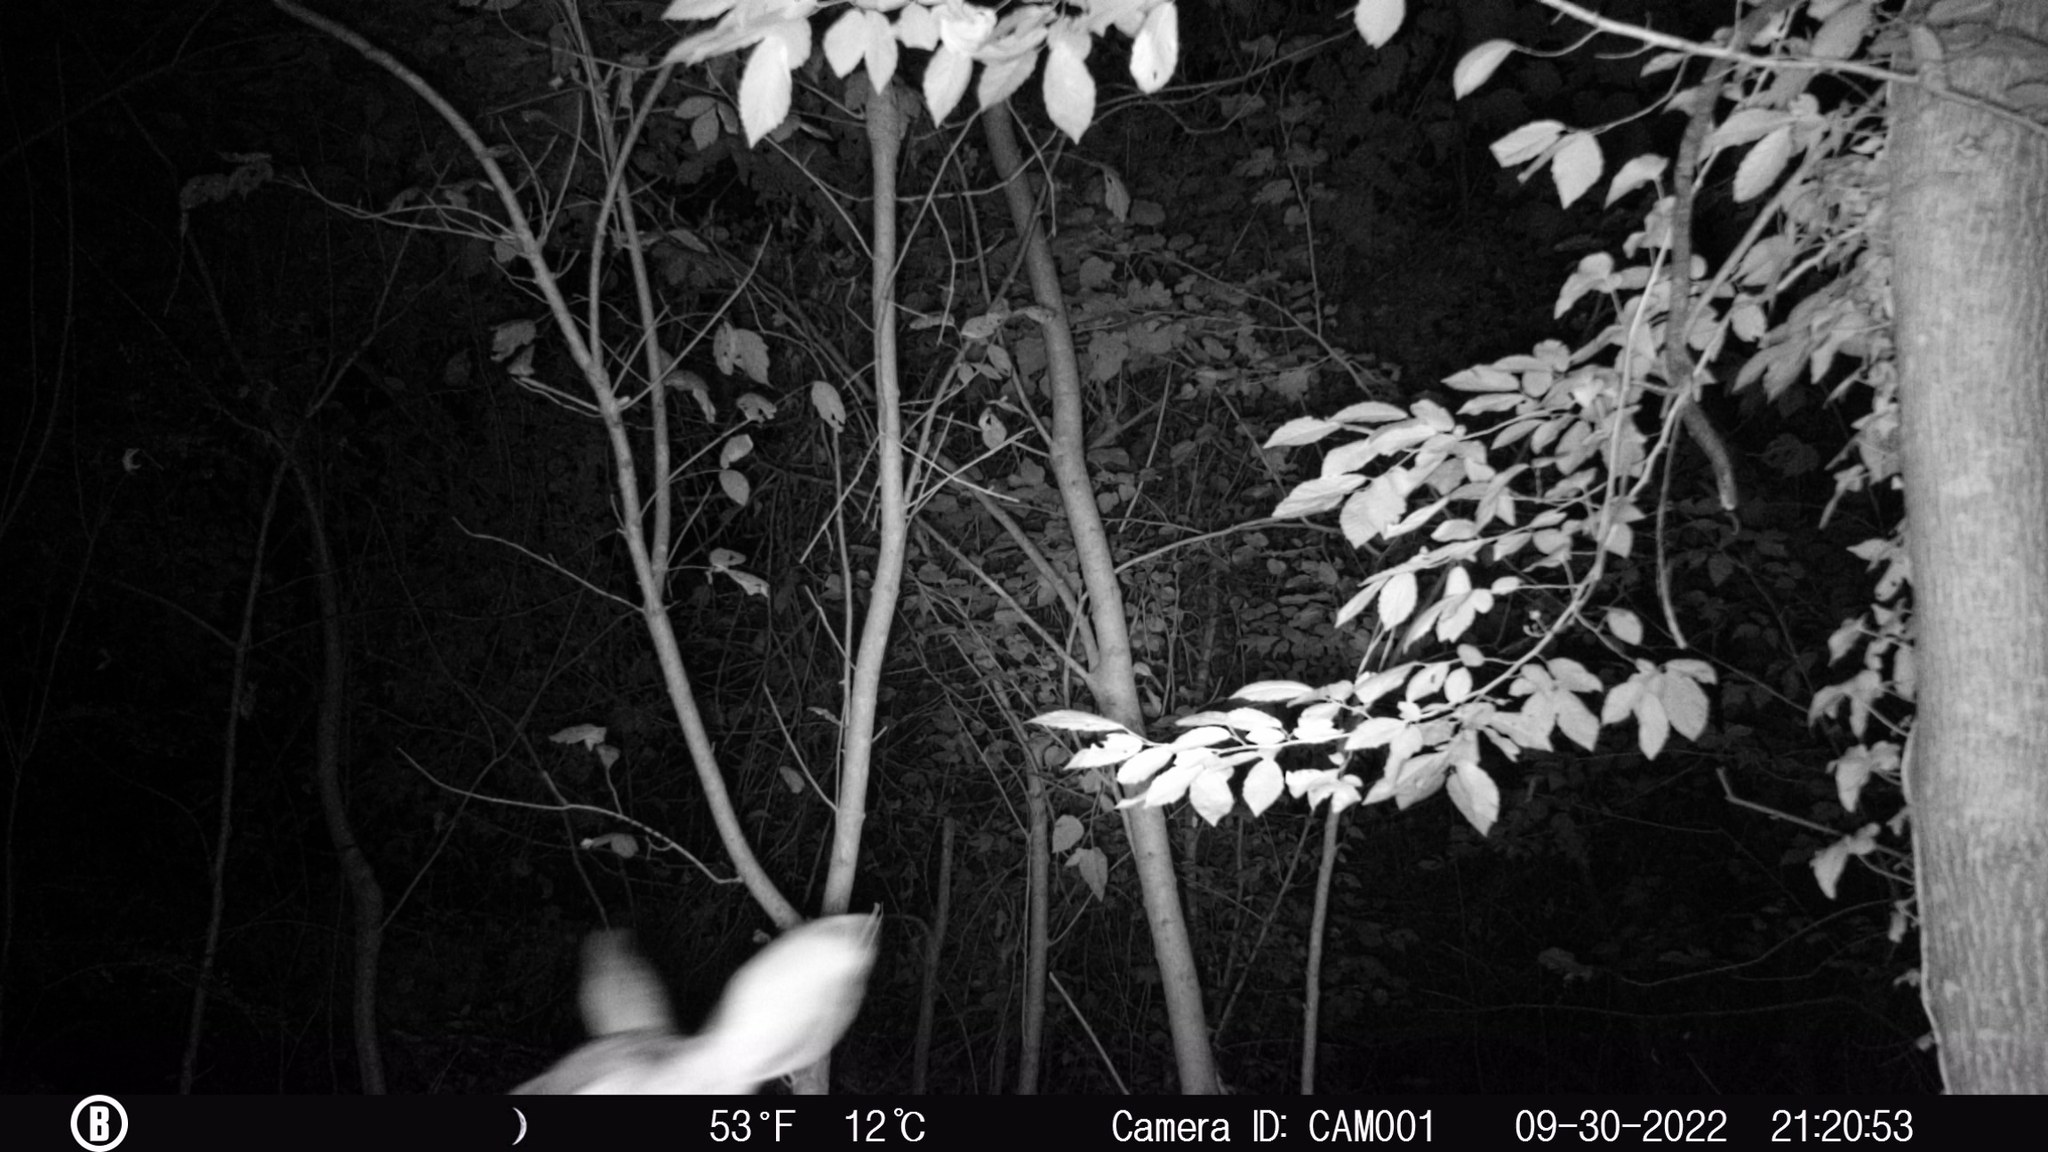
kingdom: Animalia
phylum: Chordata
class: Mammalia
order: Artiodactyla
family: Cervidae
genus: Odocoileus
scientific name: Odocoileus virginianus
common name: White-tailed deer
